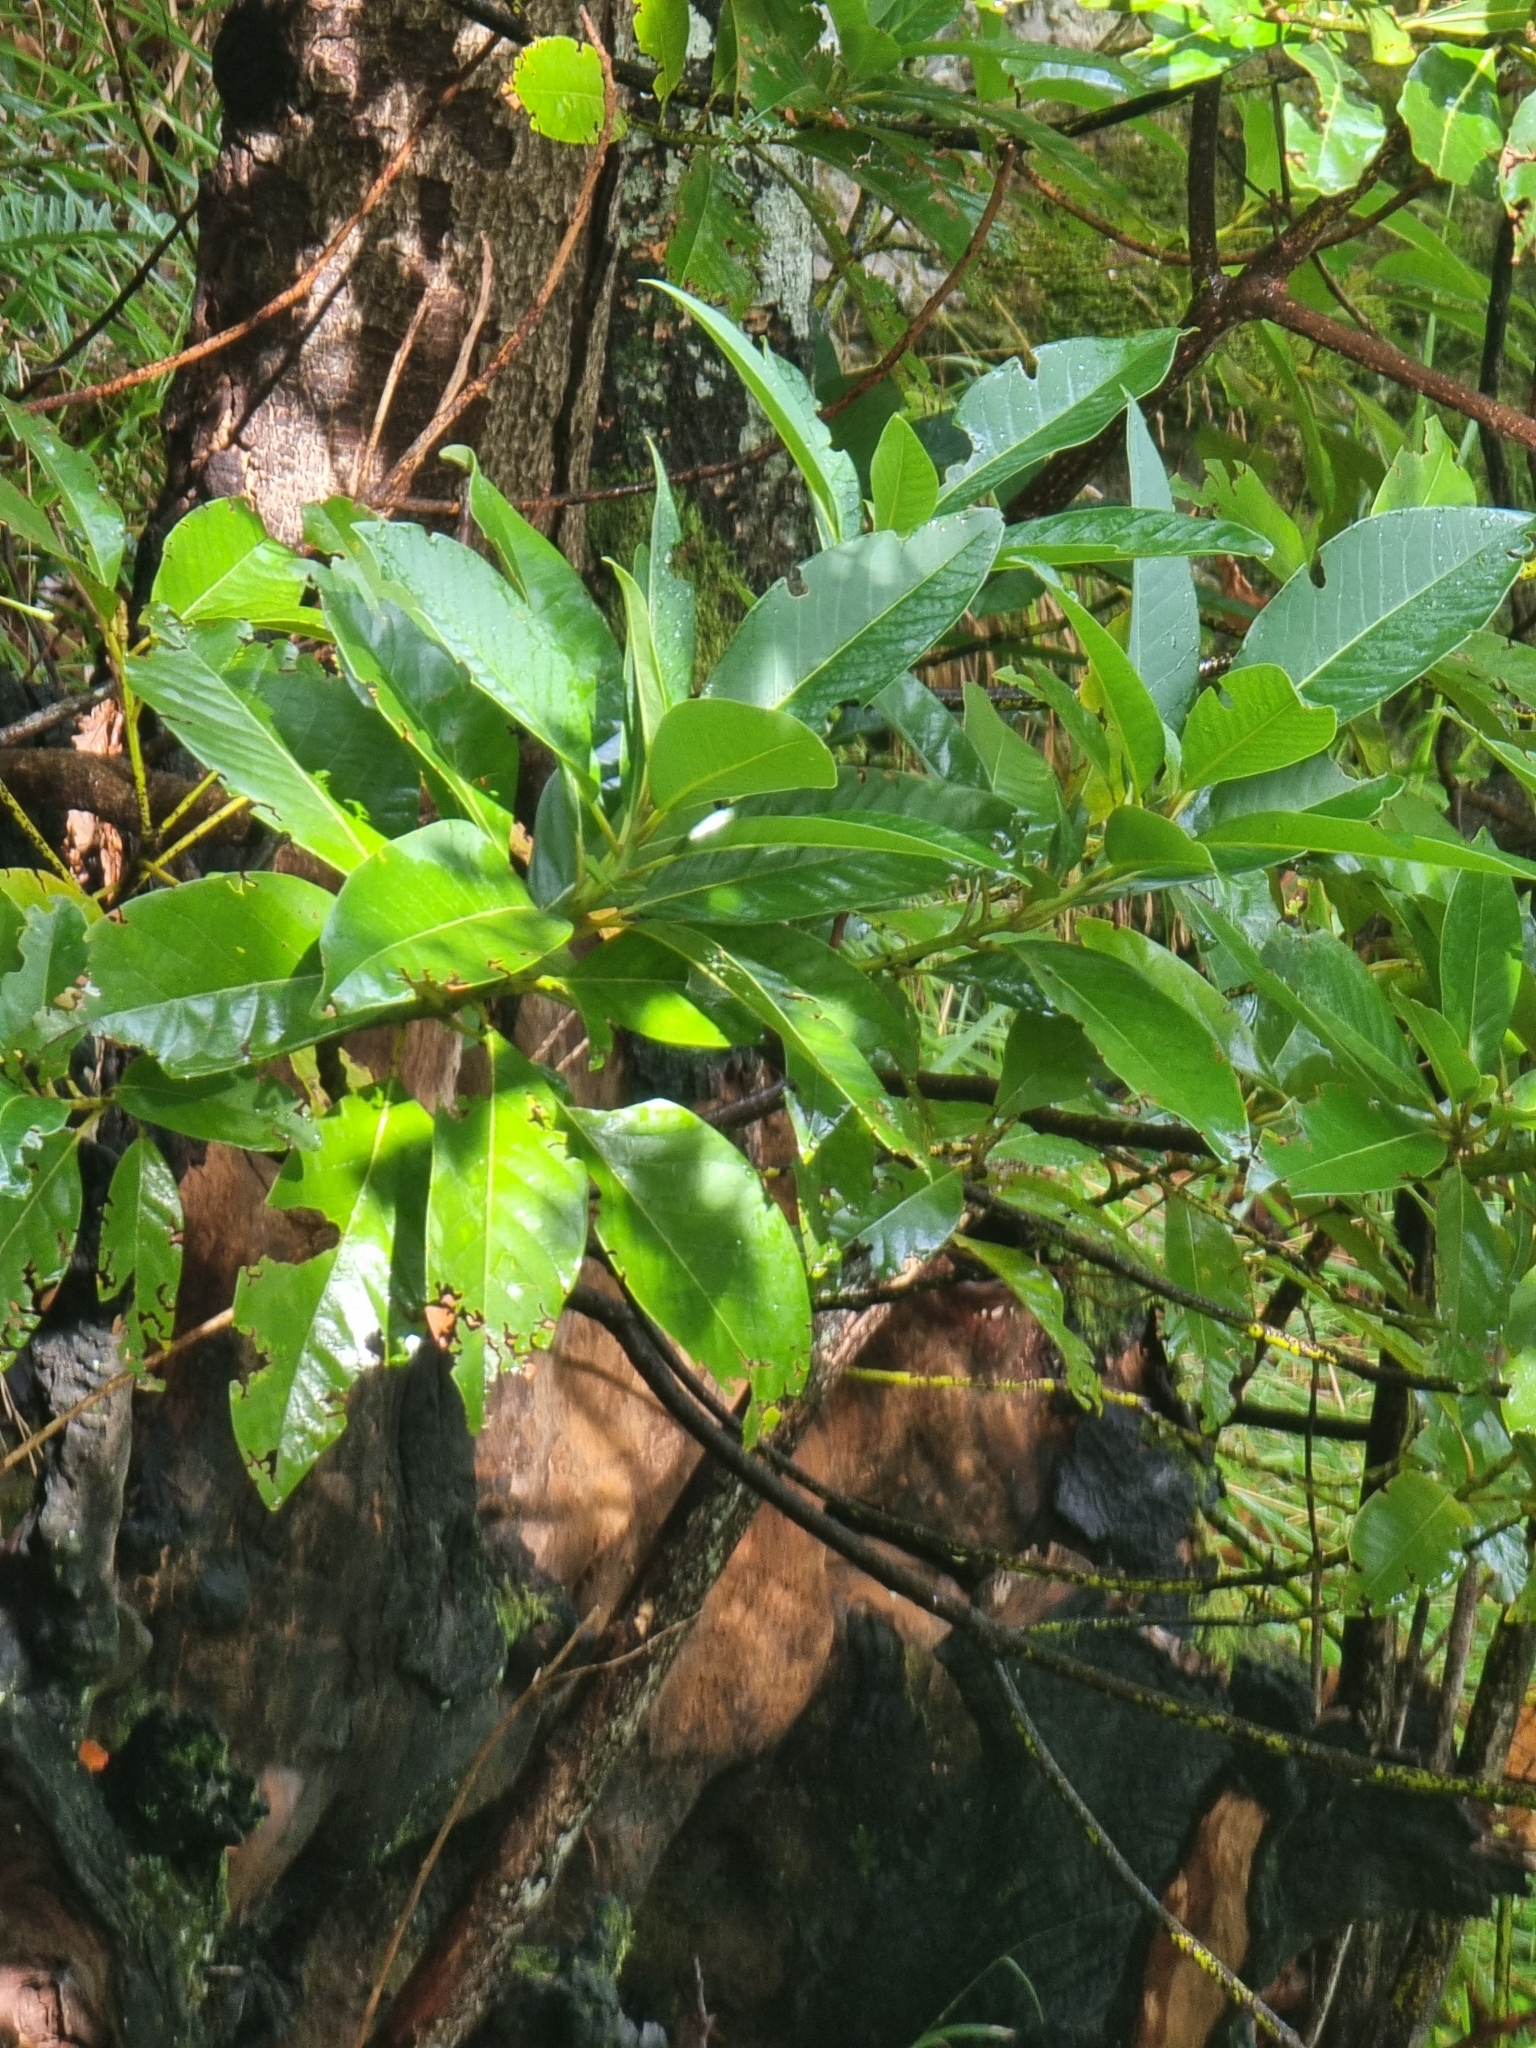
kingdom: Plantae
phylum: Tracheophyta
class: Magnoliopsida
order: Laurales
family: Lauraceae
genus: Persea
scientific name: Persea indica
